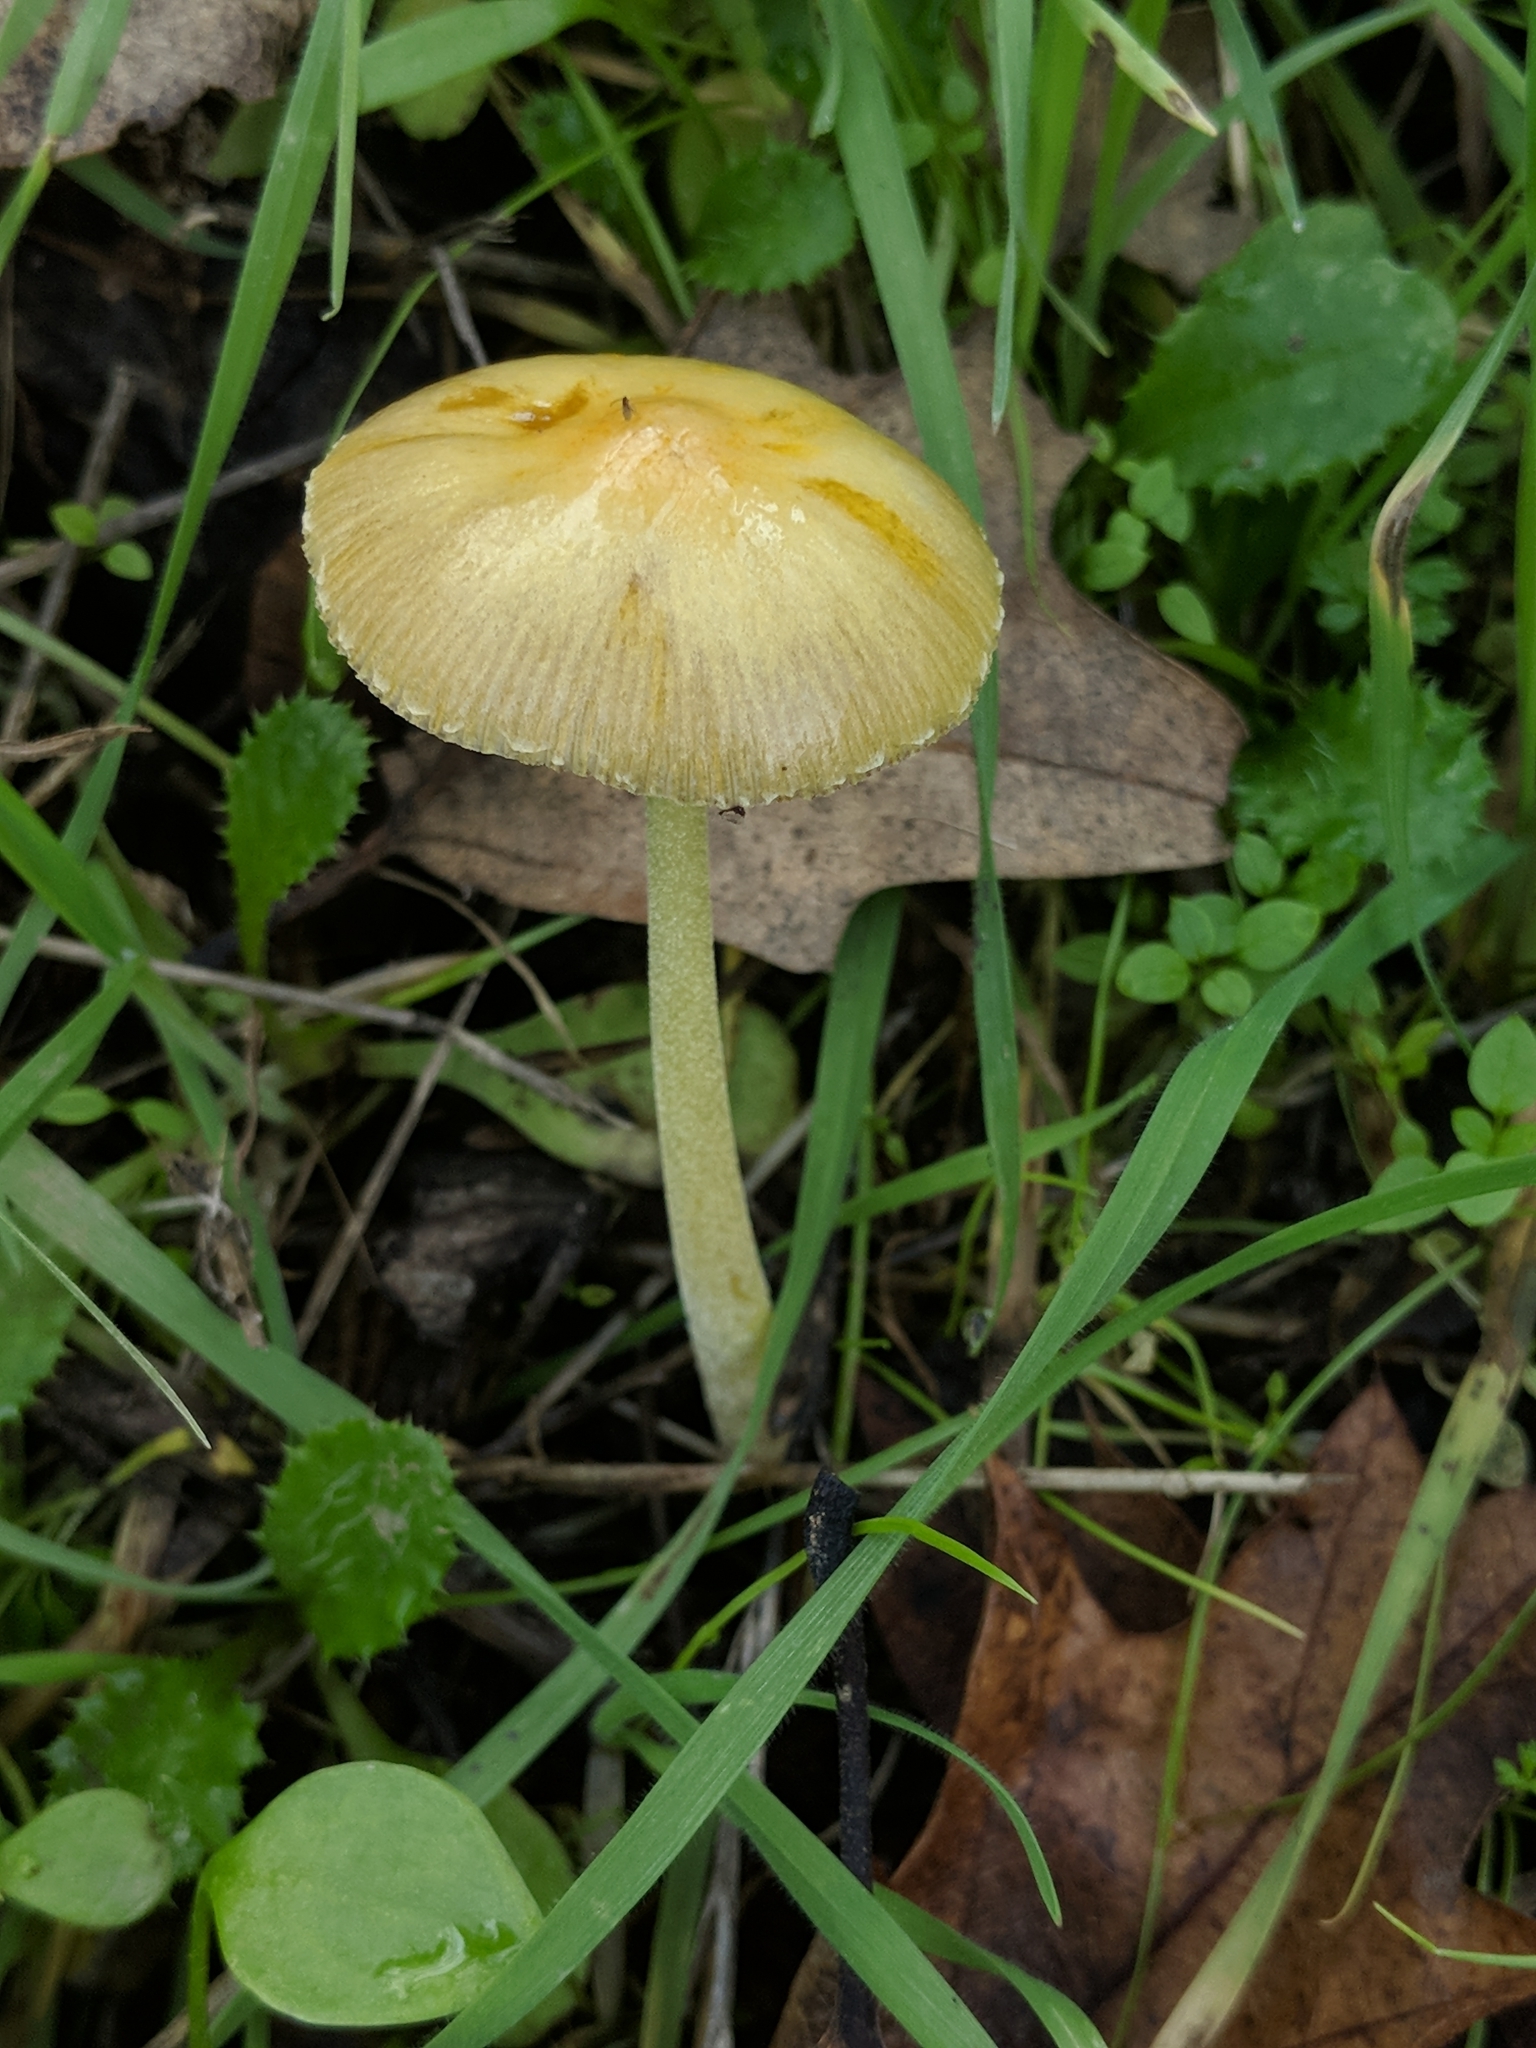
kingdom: Fungi
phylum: Basidiomycota
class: Agaricomycetes
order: Agaricales
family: Bolbitiaceae
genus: Bolbitius
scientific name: Bolbitius titubans
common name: Yellow fieldcap
